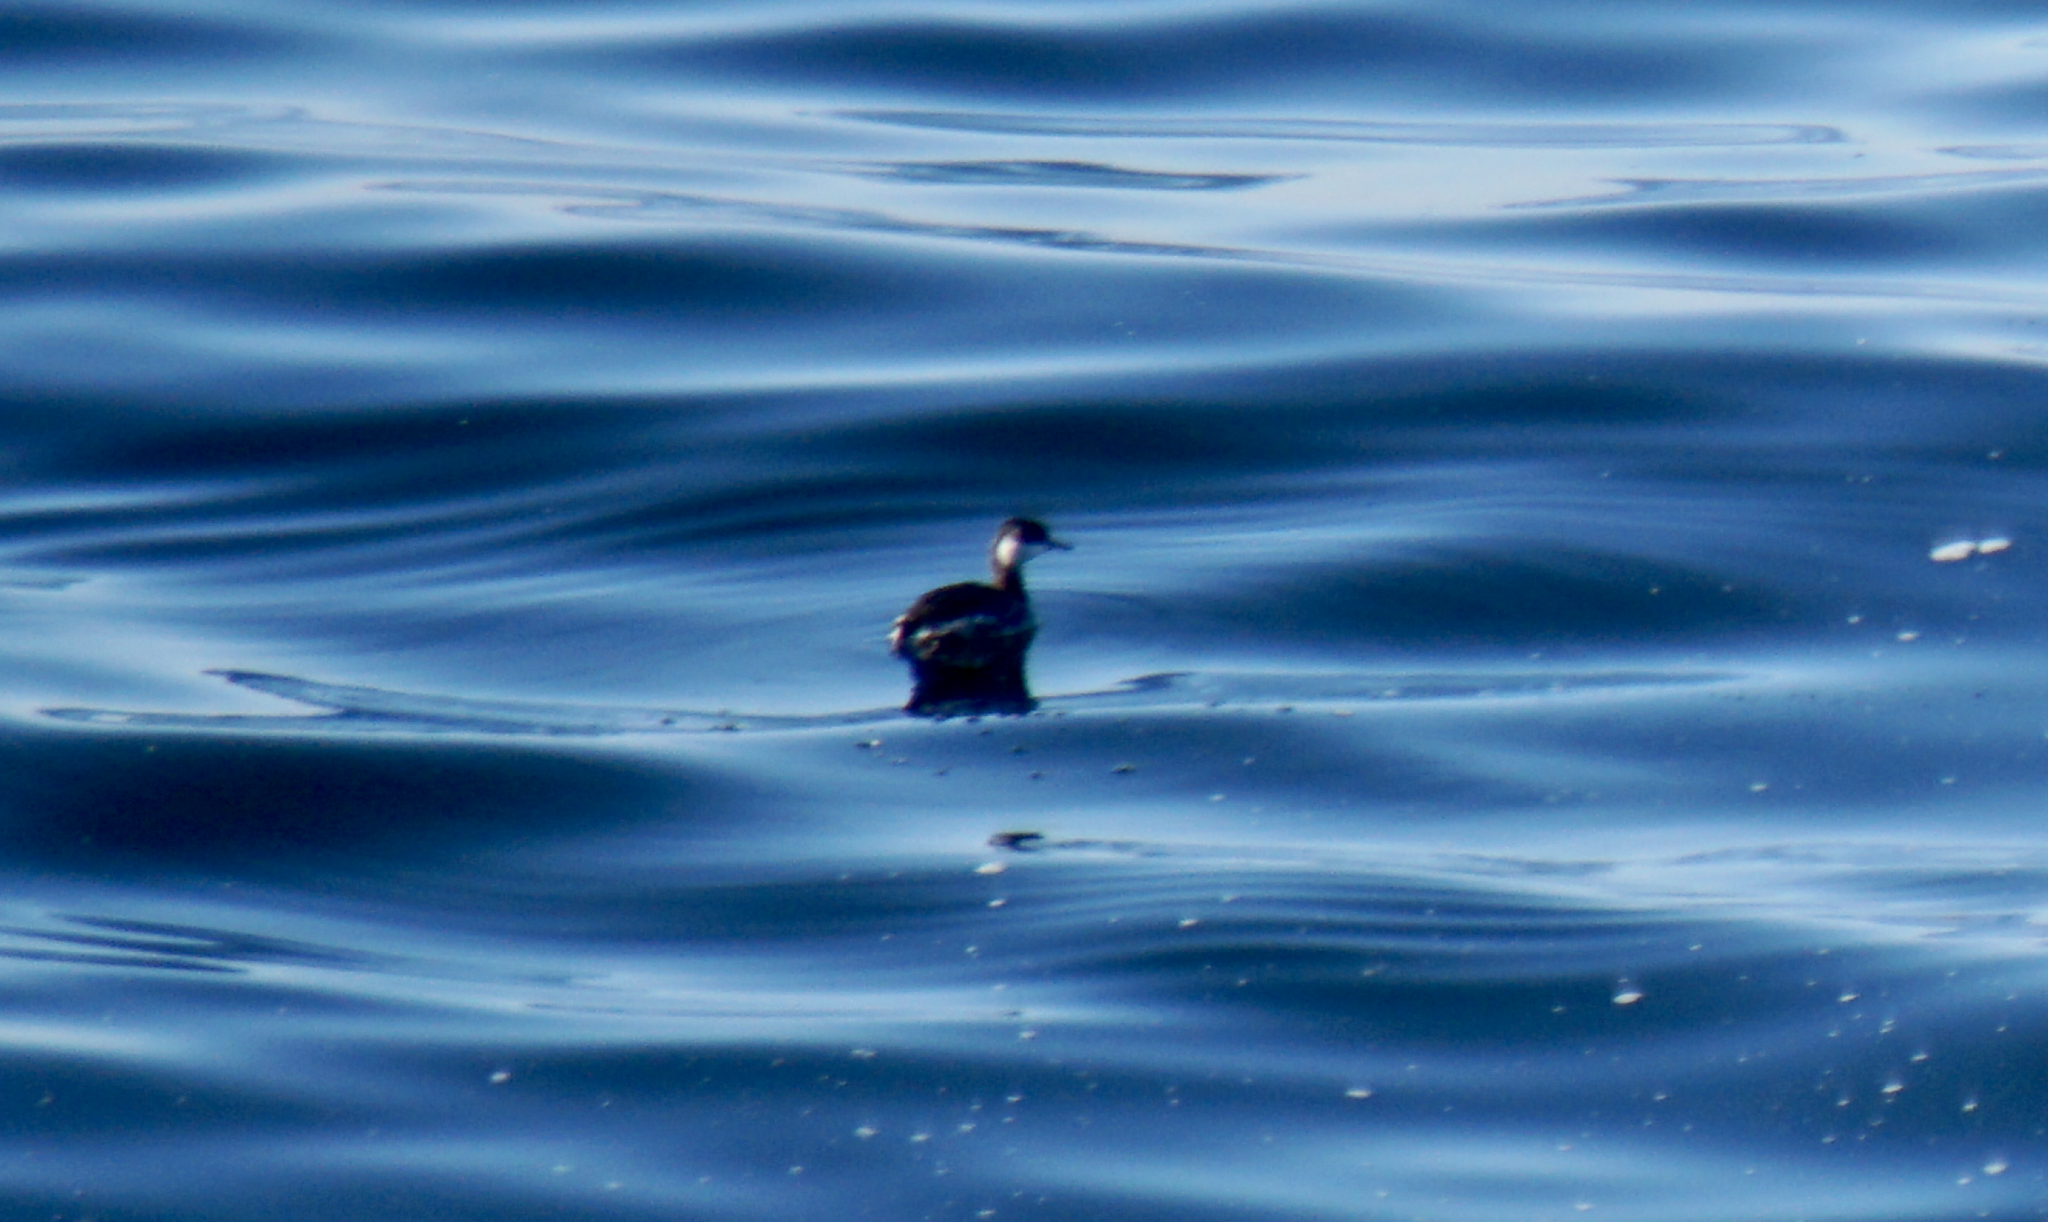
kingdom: Animalia
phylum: Chordata
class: Aves
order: Podicipediformes
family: Podicipedidae
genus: Podiceps
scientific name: Podiceps auritus
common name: Horned grebe
